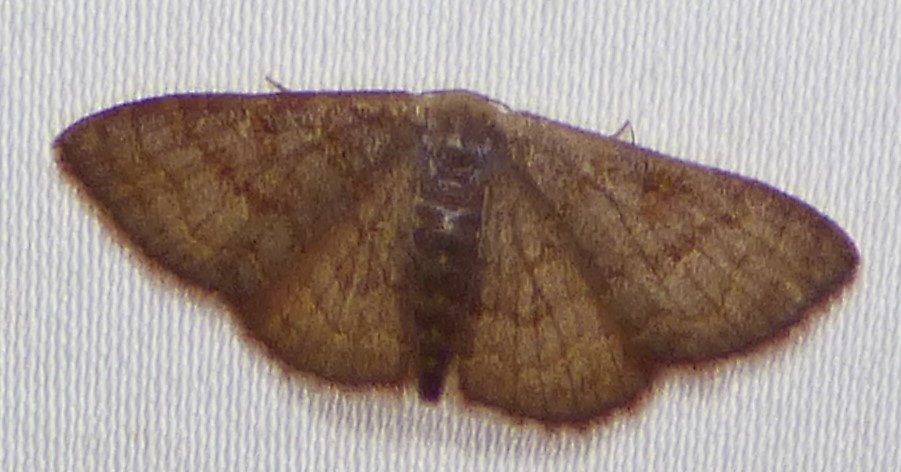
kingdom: Animalia
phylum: Arthropoda
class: Insecta
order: Lepidoptera
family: Geometridae
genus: Leptostales
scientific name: Leptostales pannaria
